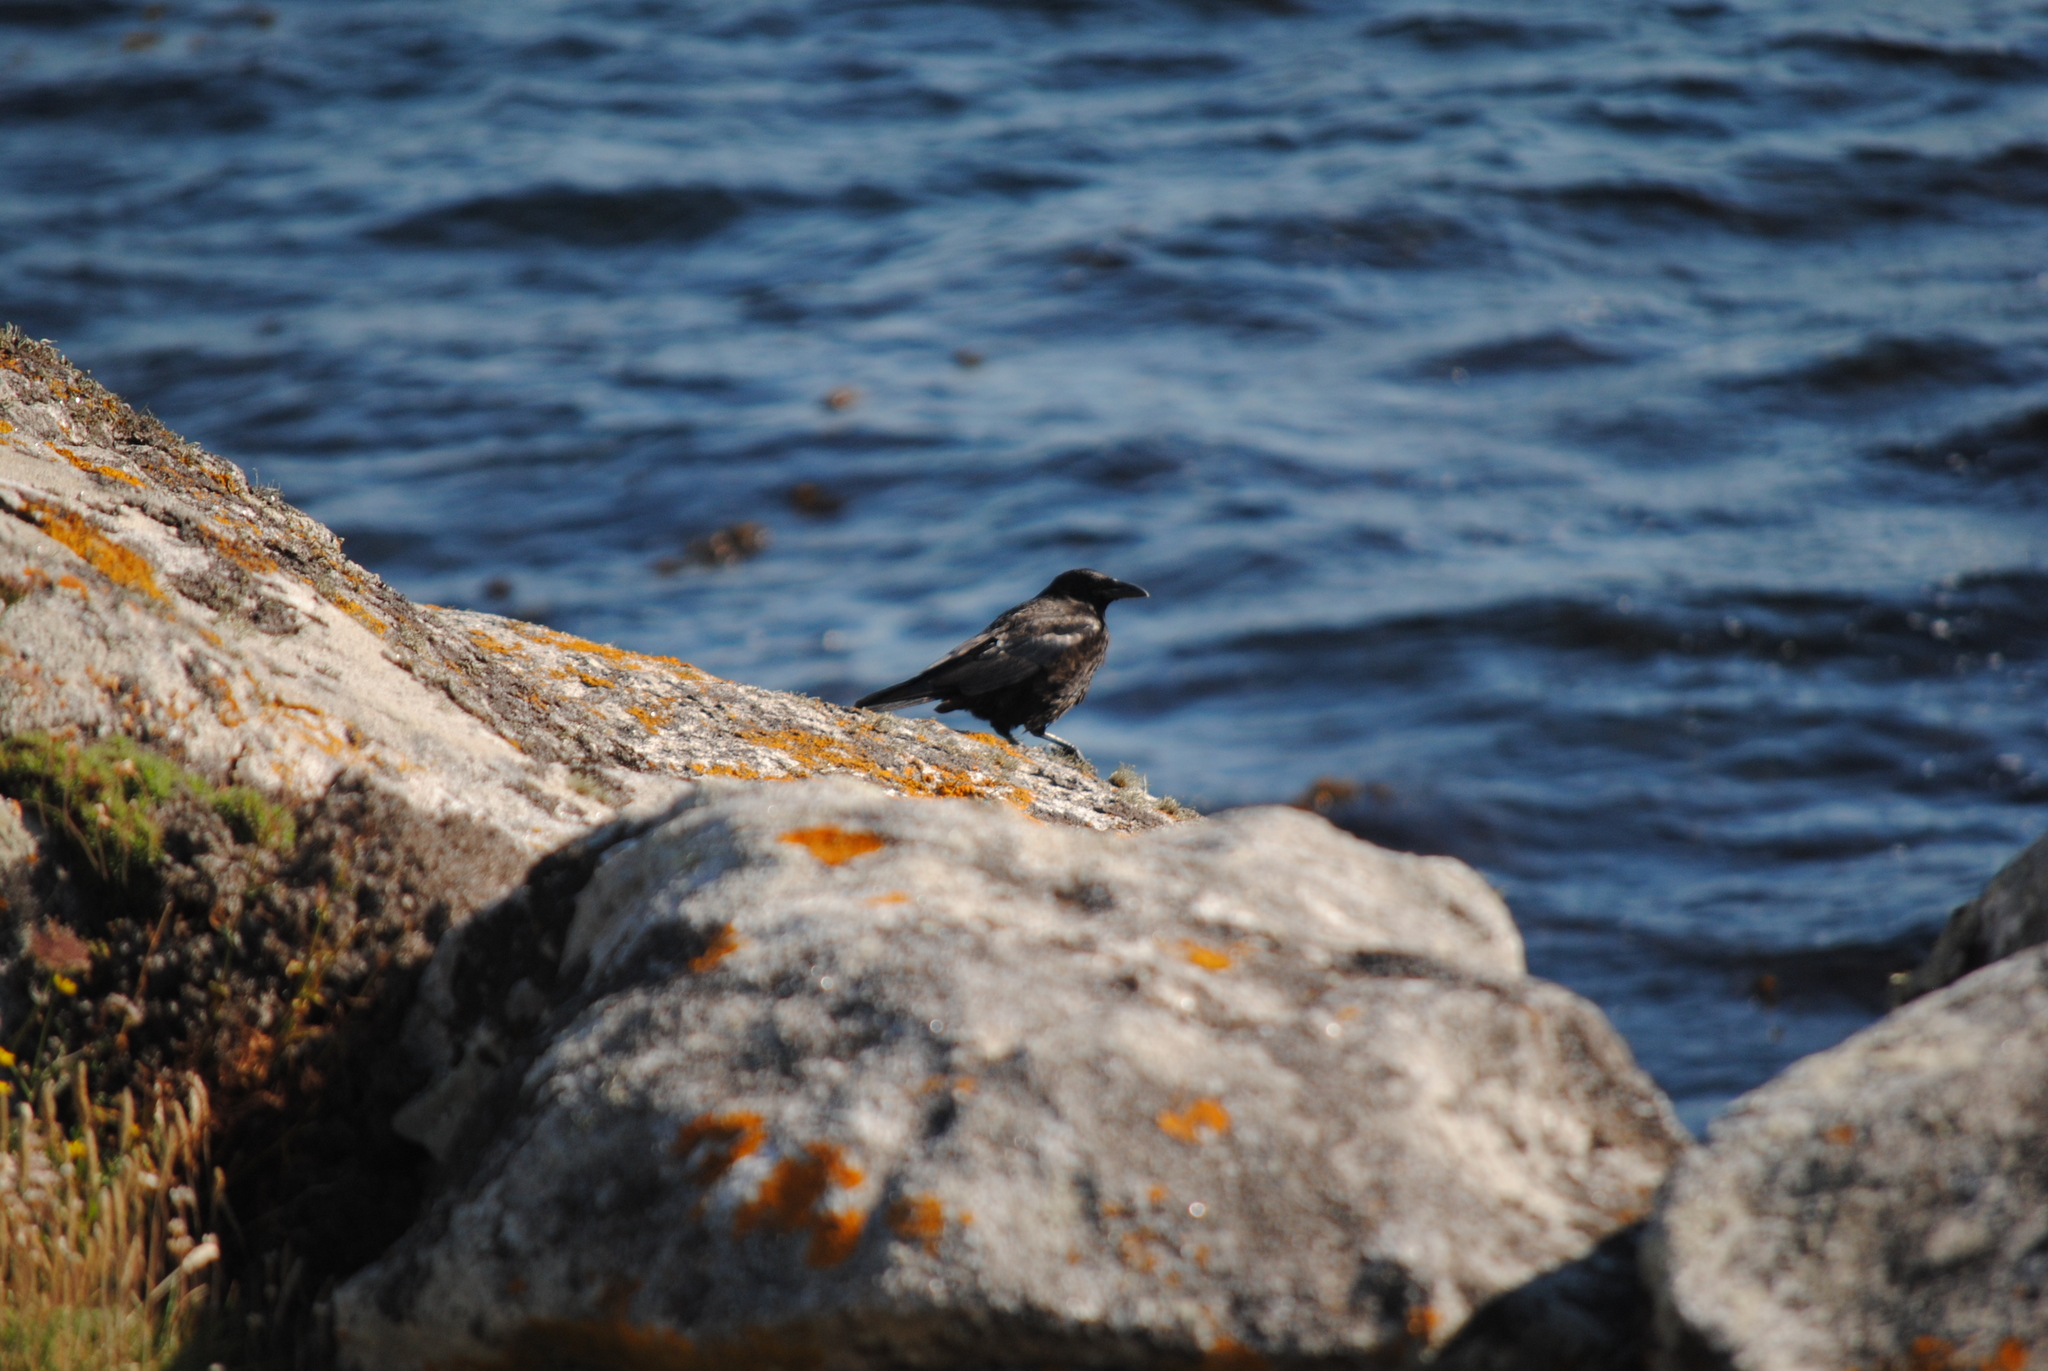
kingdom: Animalia
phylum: Chordata
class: Aves
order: Passeriformes
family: Corvidae
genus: Corvus
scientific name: Corvus corone
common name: Carrion crow
